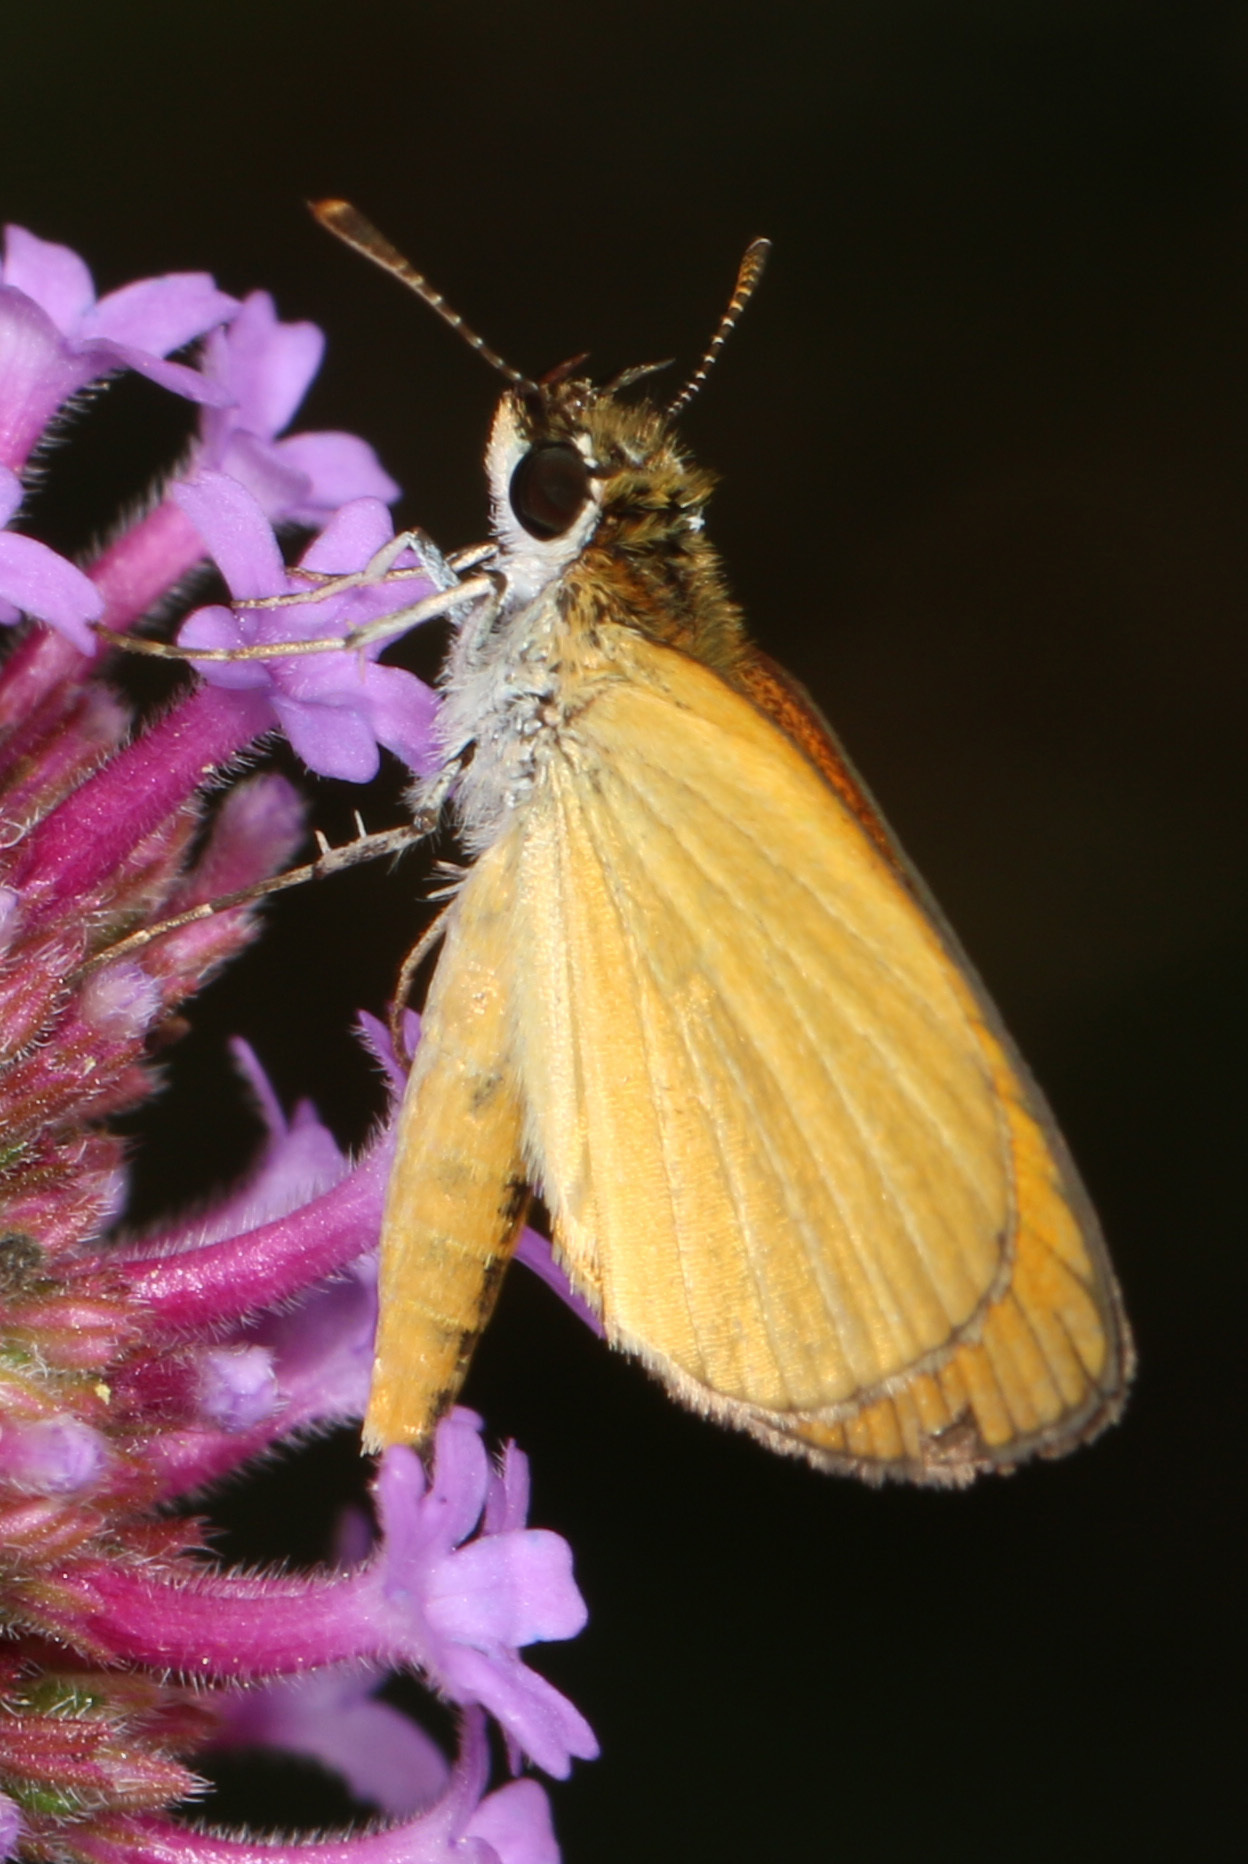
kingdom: Animalia
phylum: Arthropoda
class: Insecta
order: Lepidoptera
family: Hesperiidae
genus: Ancyloxypha
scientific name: Ancyloxypha numitor
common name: Least skipper
